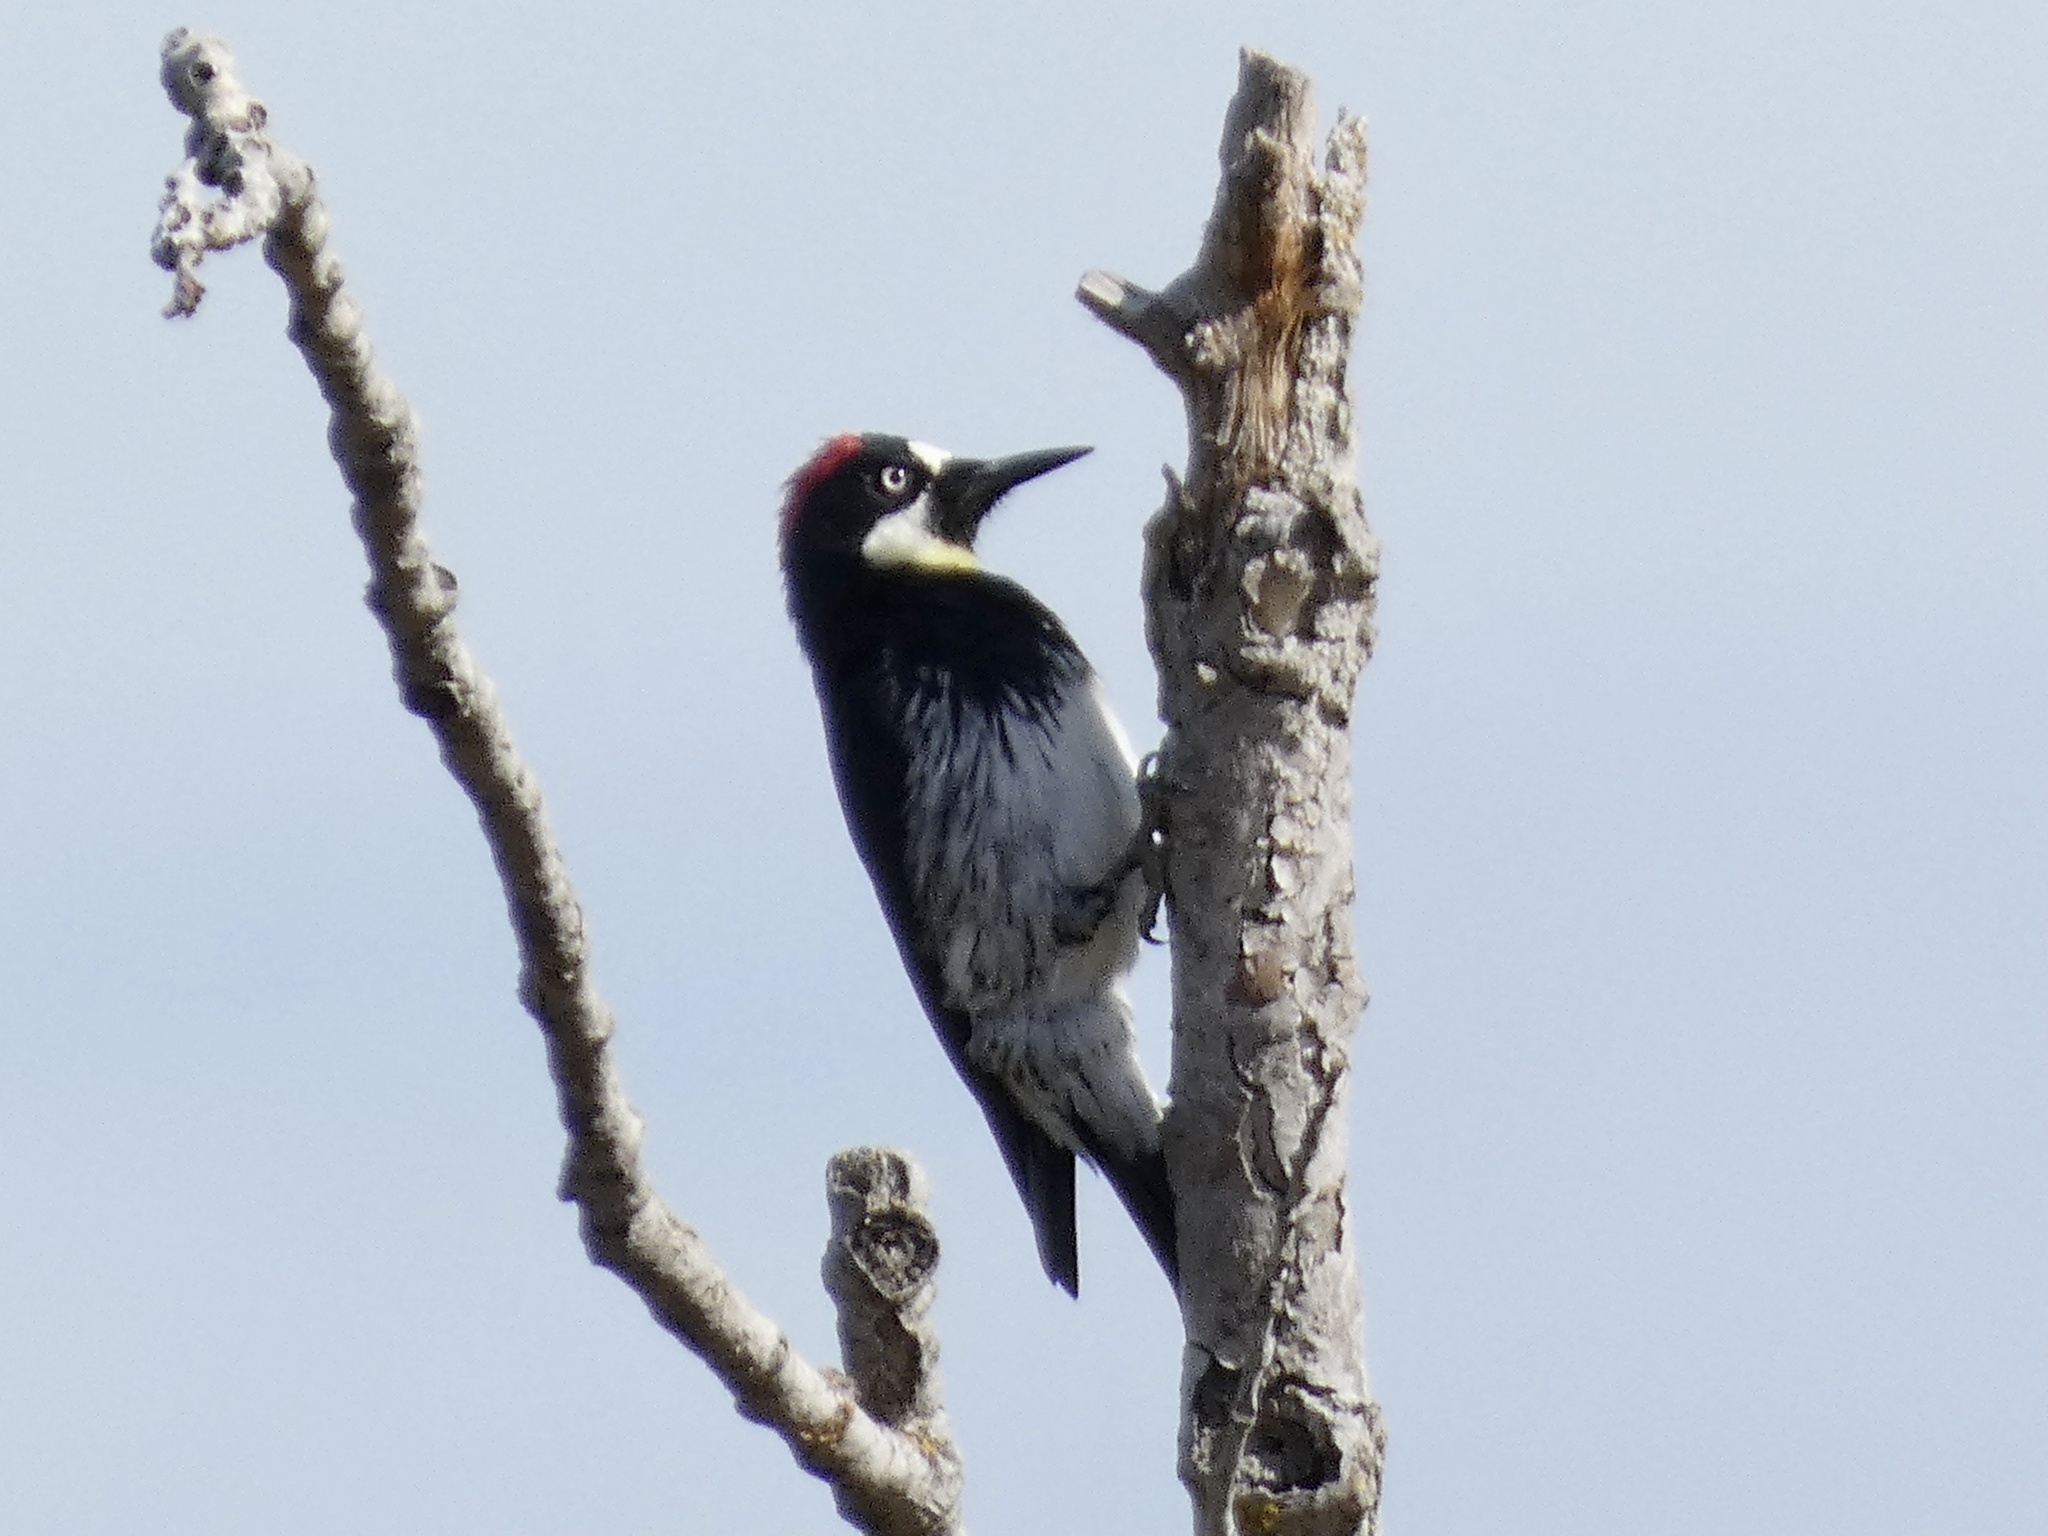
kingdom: Animalia
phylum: Chordata
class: Aves
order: Piciformes
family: Picidae
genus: Melanerpes
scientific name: Melanerpes formicivorus
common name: Acorn woodpecker
